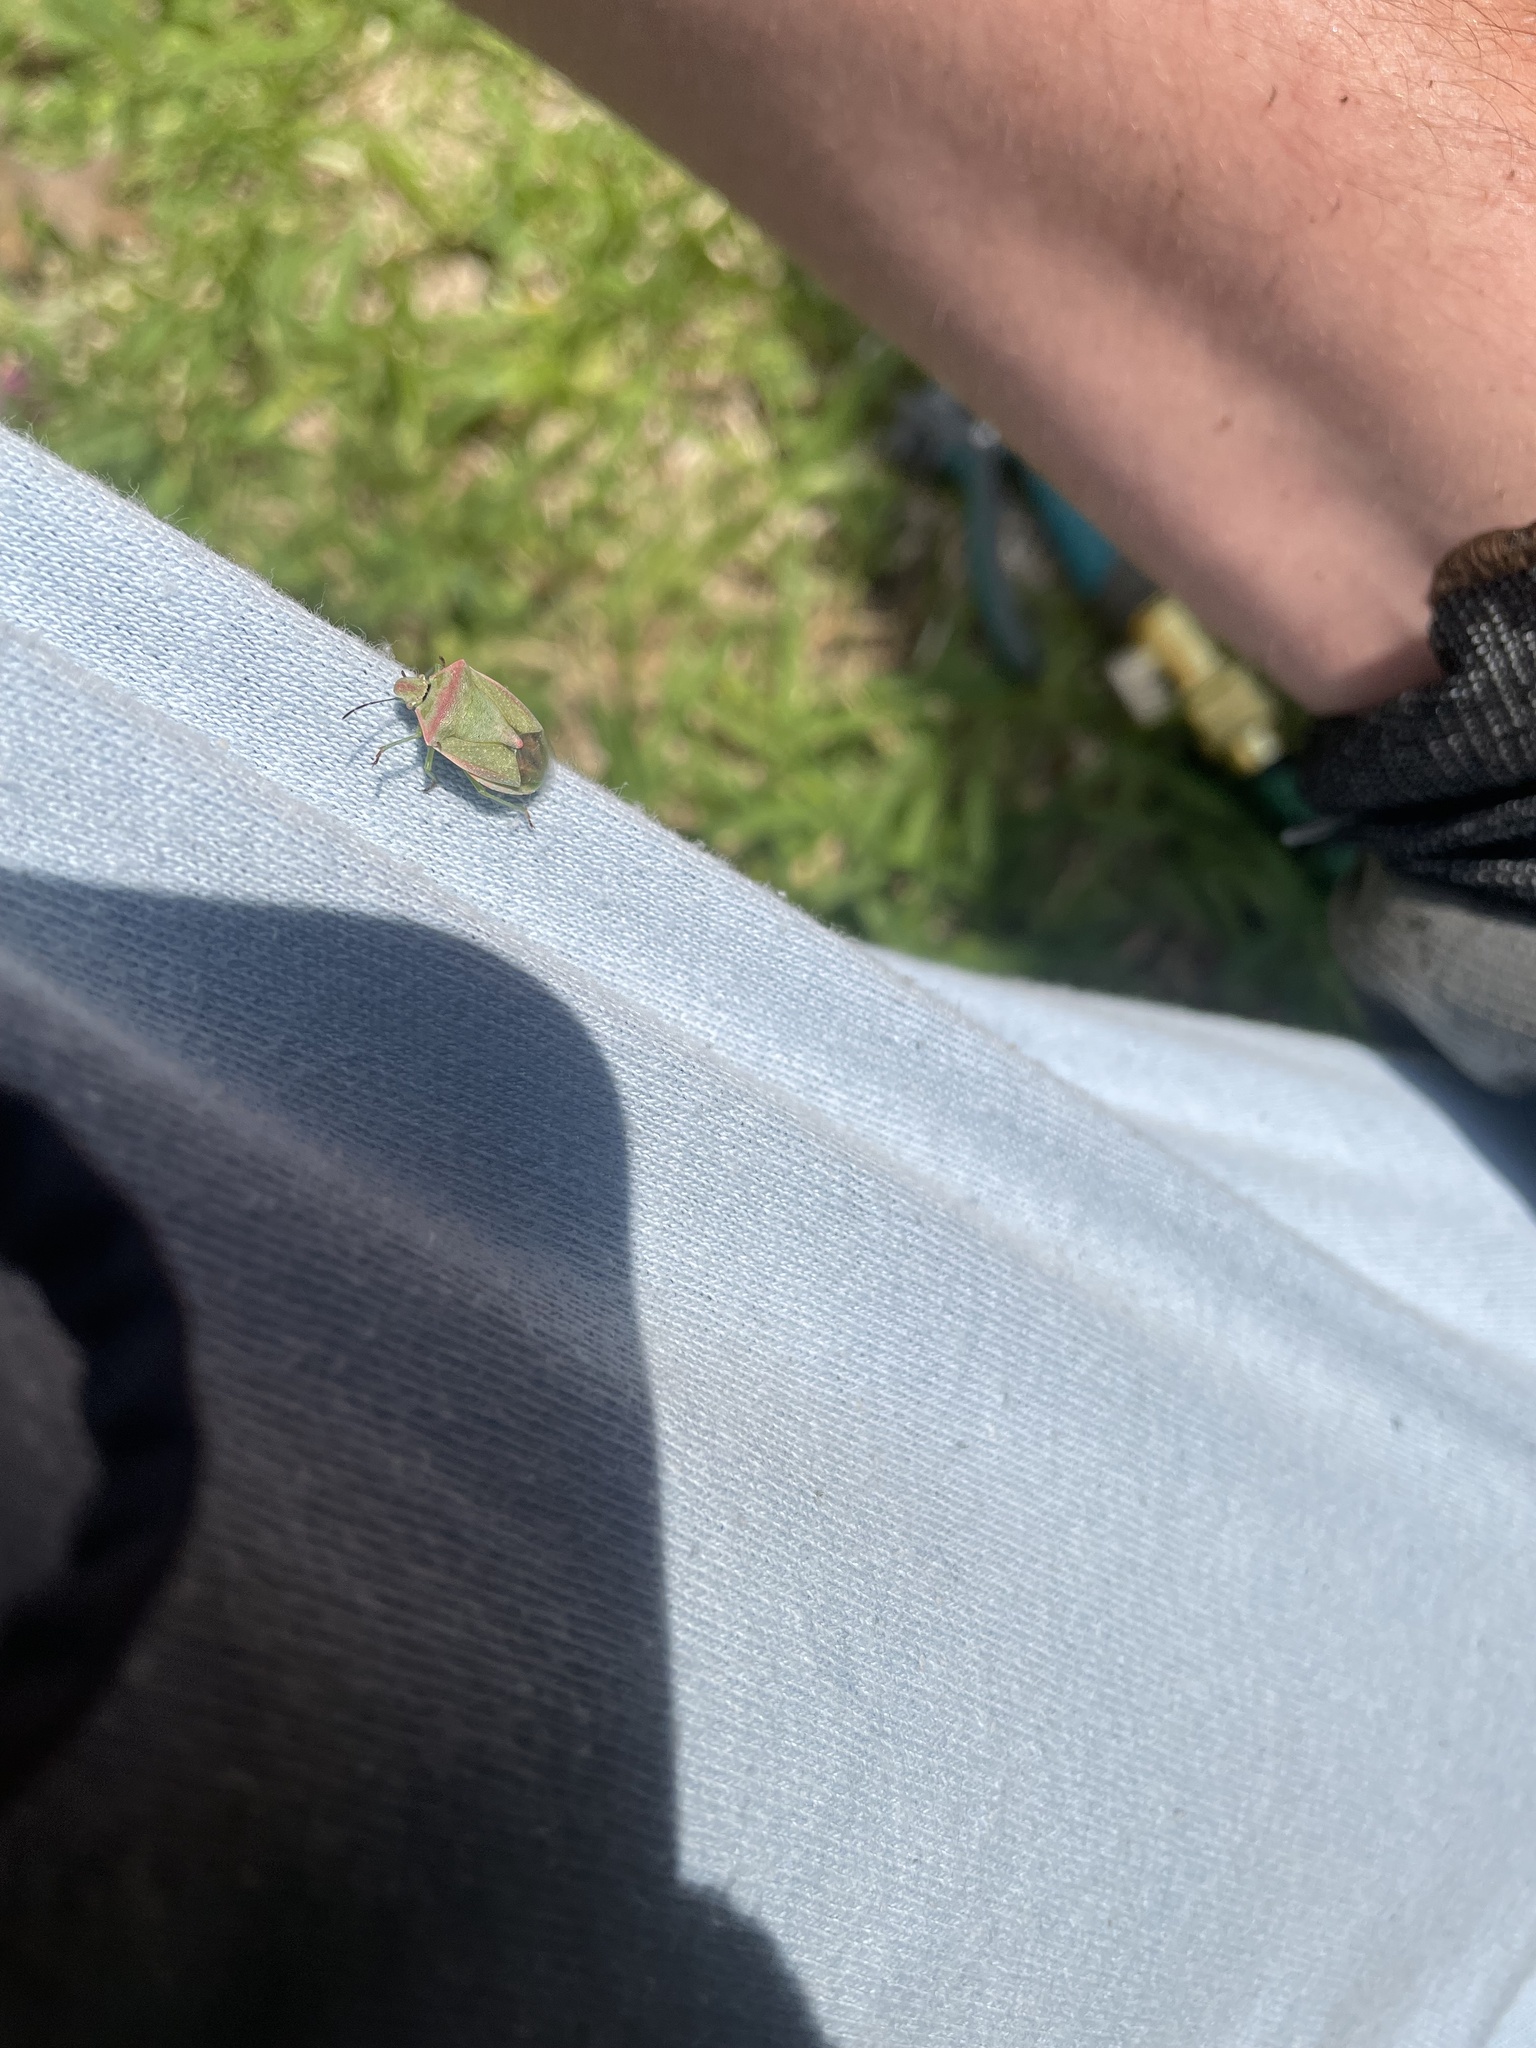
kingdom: Animalia
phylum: Arthropoda
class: Insecta
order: Hemiptera
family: Pentatomidae
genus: Thyanta
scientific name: Thyanta custator
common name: Stink bug
